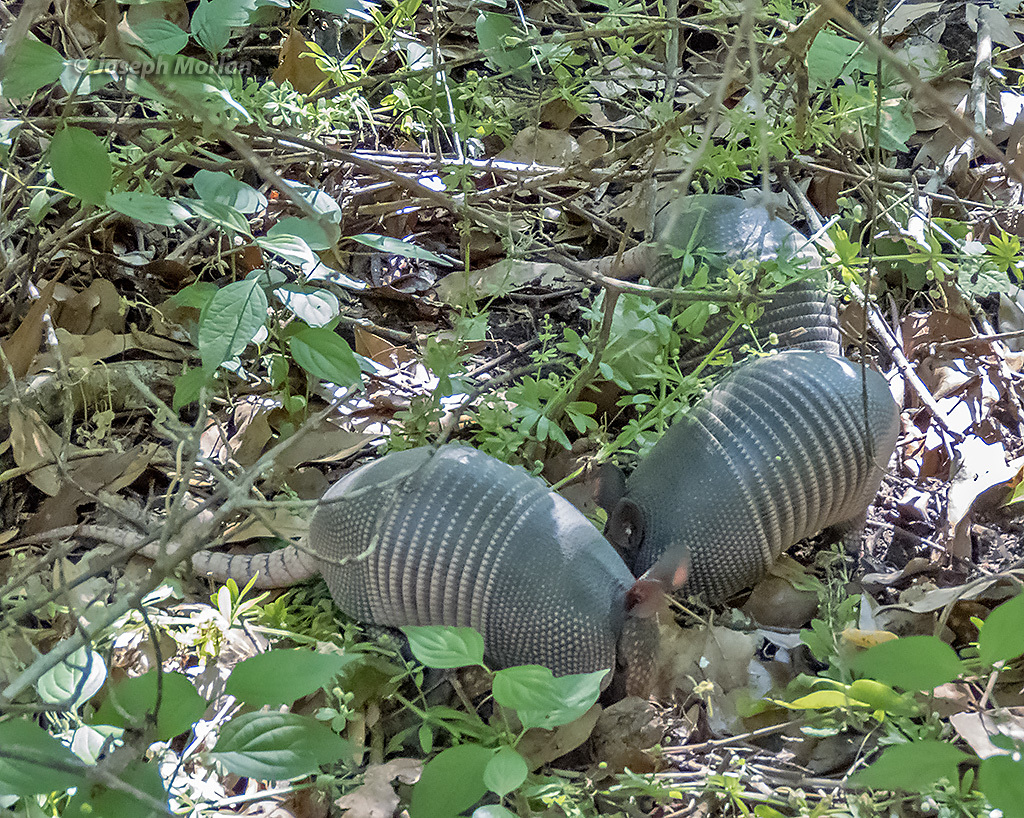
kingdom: Animalia
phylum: Chordata
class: Mammalia
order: Cingulata
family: Dasypodidae
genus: Dasypus
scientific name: Dasypus novemcinctus
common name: Nine-banded armadillo
